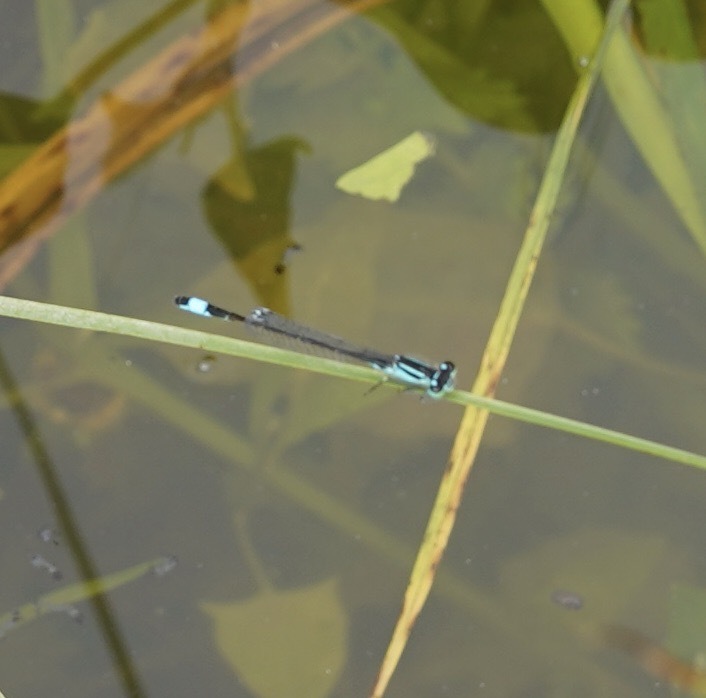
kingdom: Animalia
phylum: Arthropoda
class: Insecta
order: Odonata
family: Coenagrionidae
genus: Ischnura
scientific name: Ischnura elegans
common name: Blue-tailed damselfly
